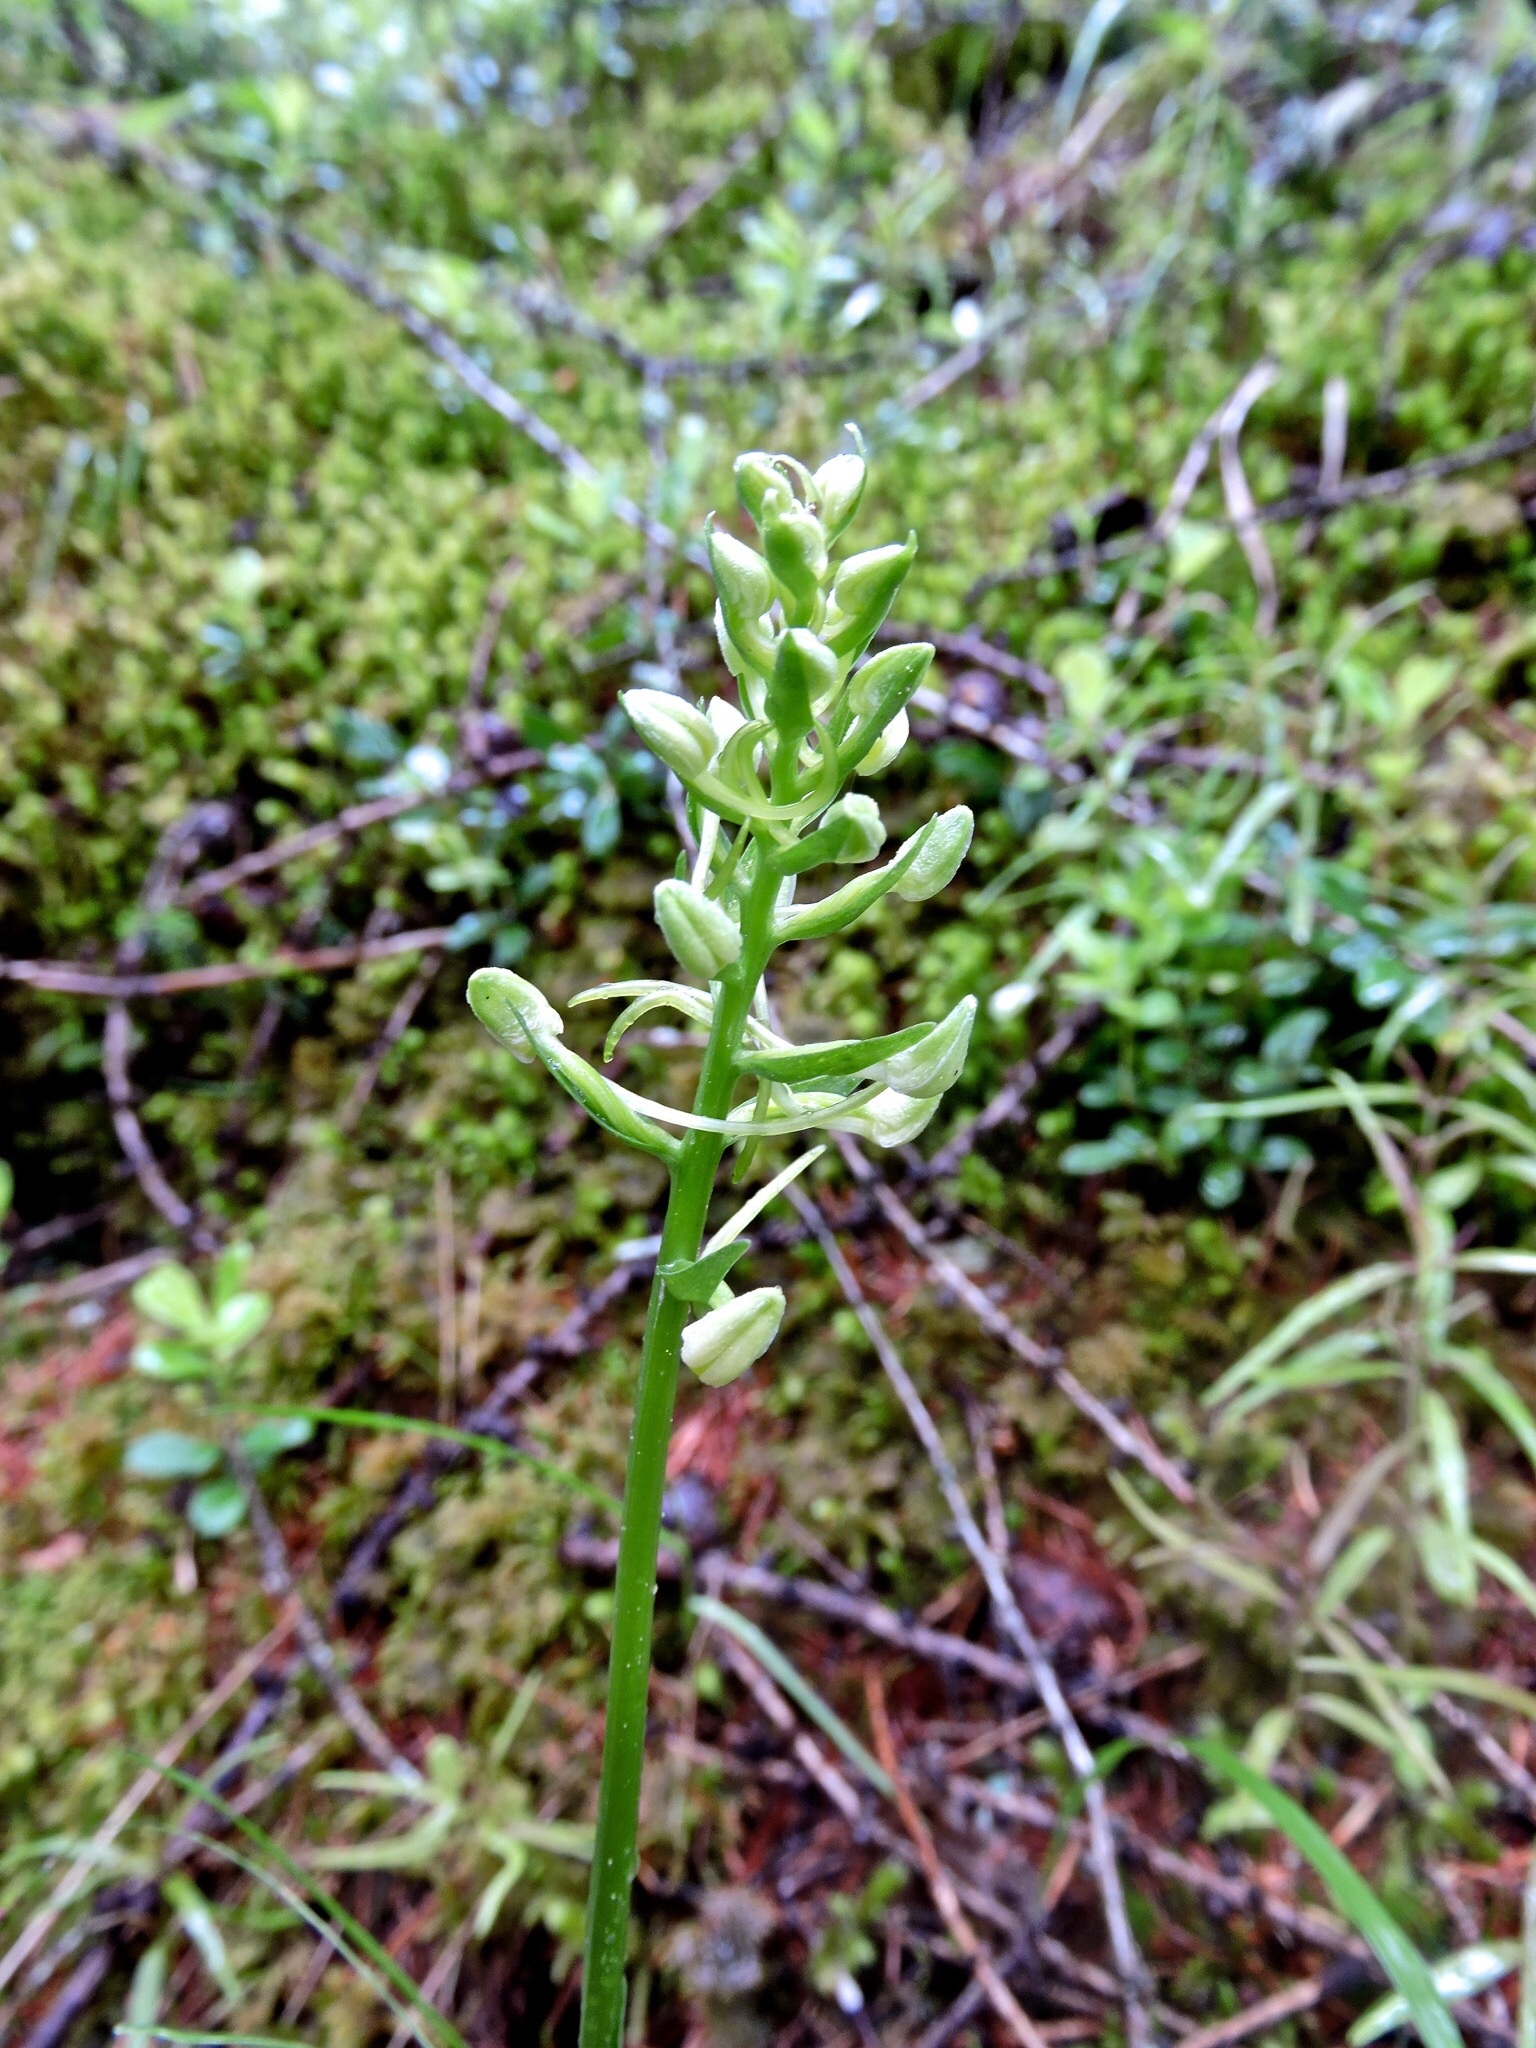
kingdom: Plantae
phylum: Tracheophyta
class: Liliopsida
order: Asparagales
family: Orchidaceae
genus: Platanthera
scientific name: Platanthera bifolia
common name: Lesser butterfly-orchid
